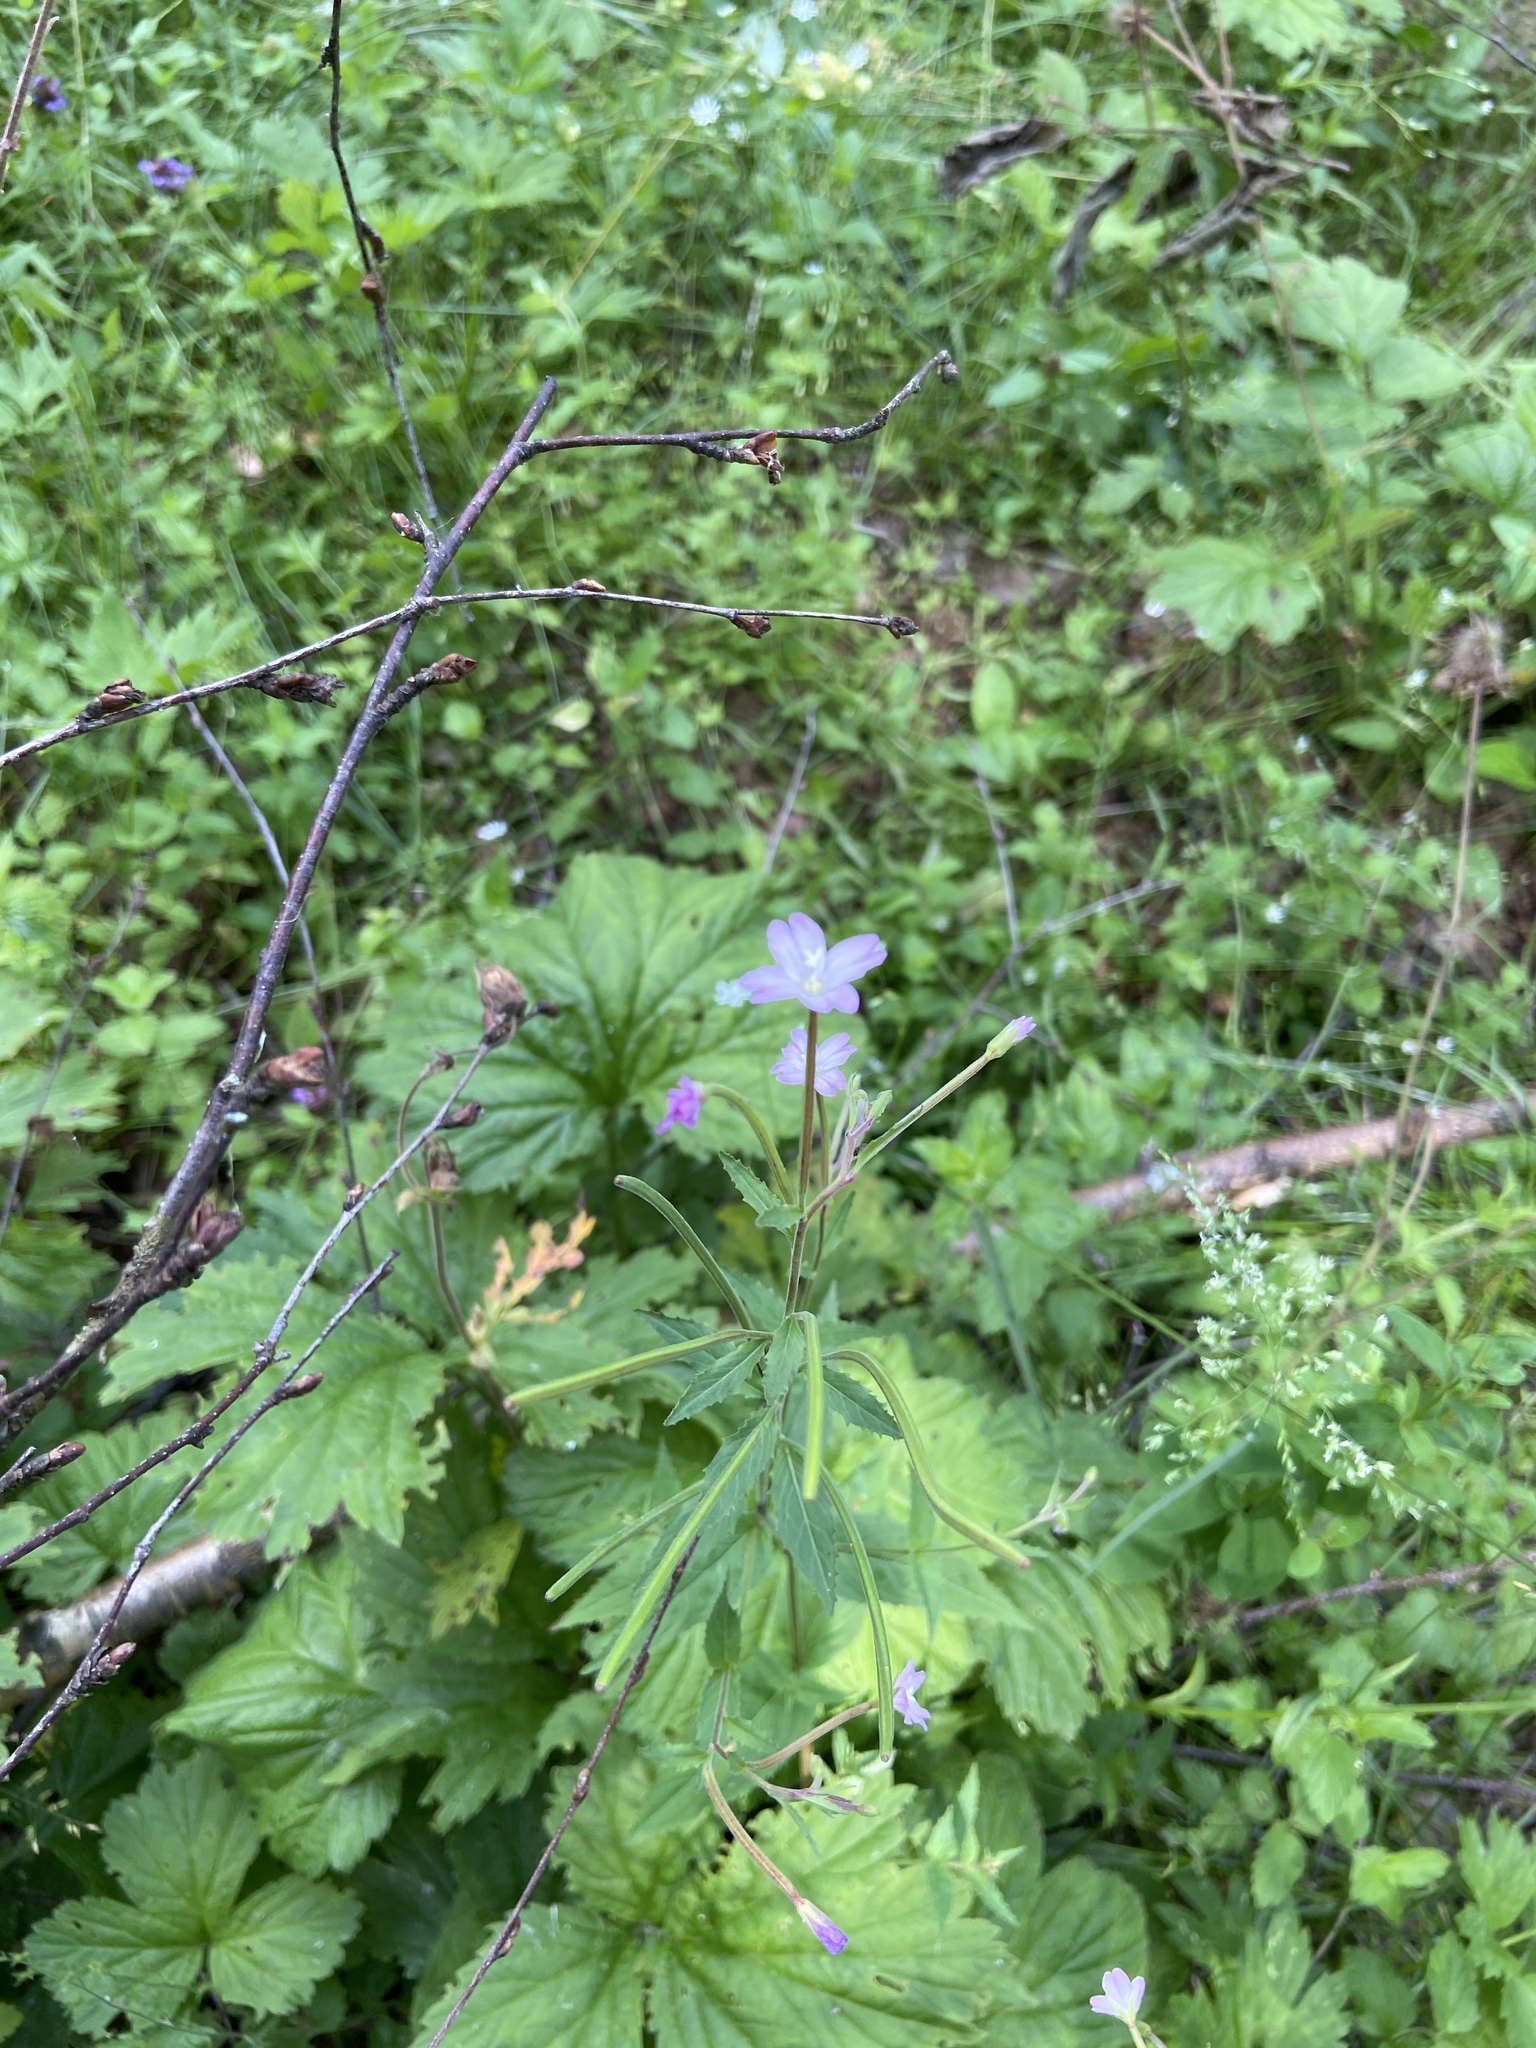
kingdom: Plantae
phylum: Tracheophyta
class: Magnoliopsida
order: Myrtales
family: Onagraceae
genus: Epilobium
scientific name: Epilobium montanum
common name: Broad-leaved willowherb
